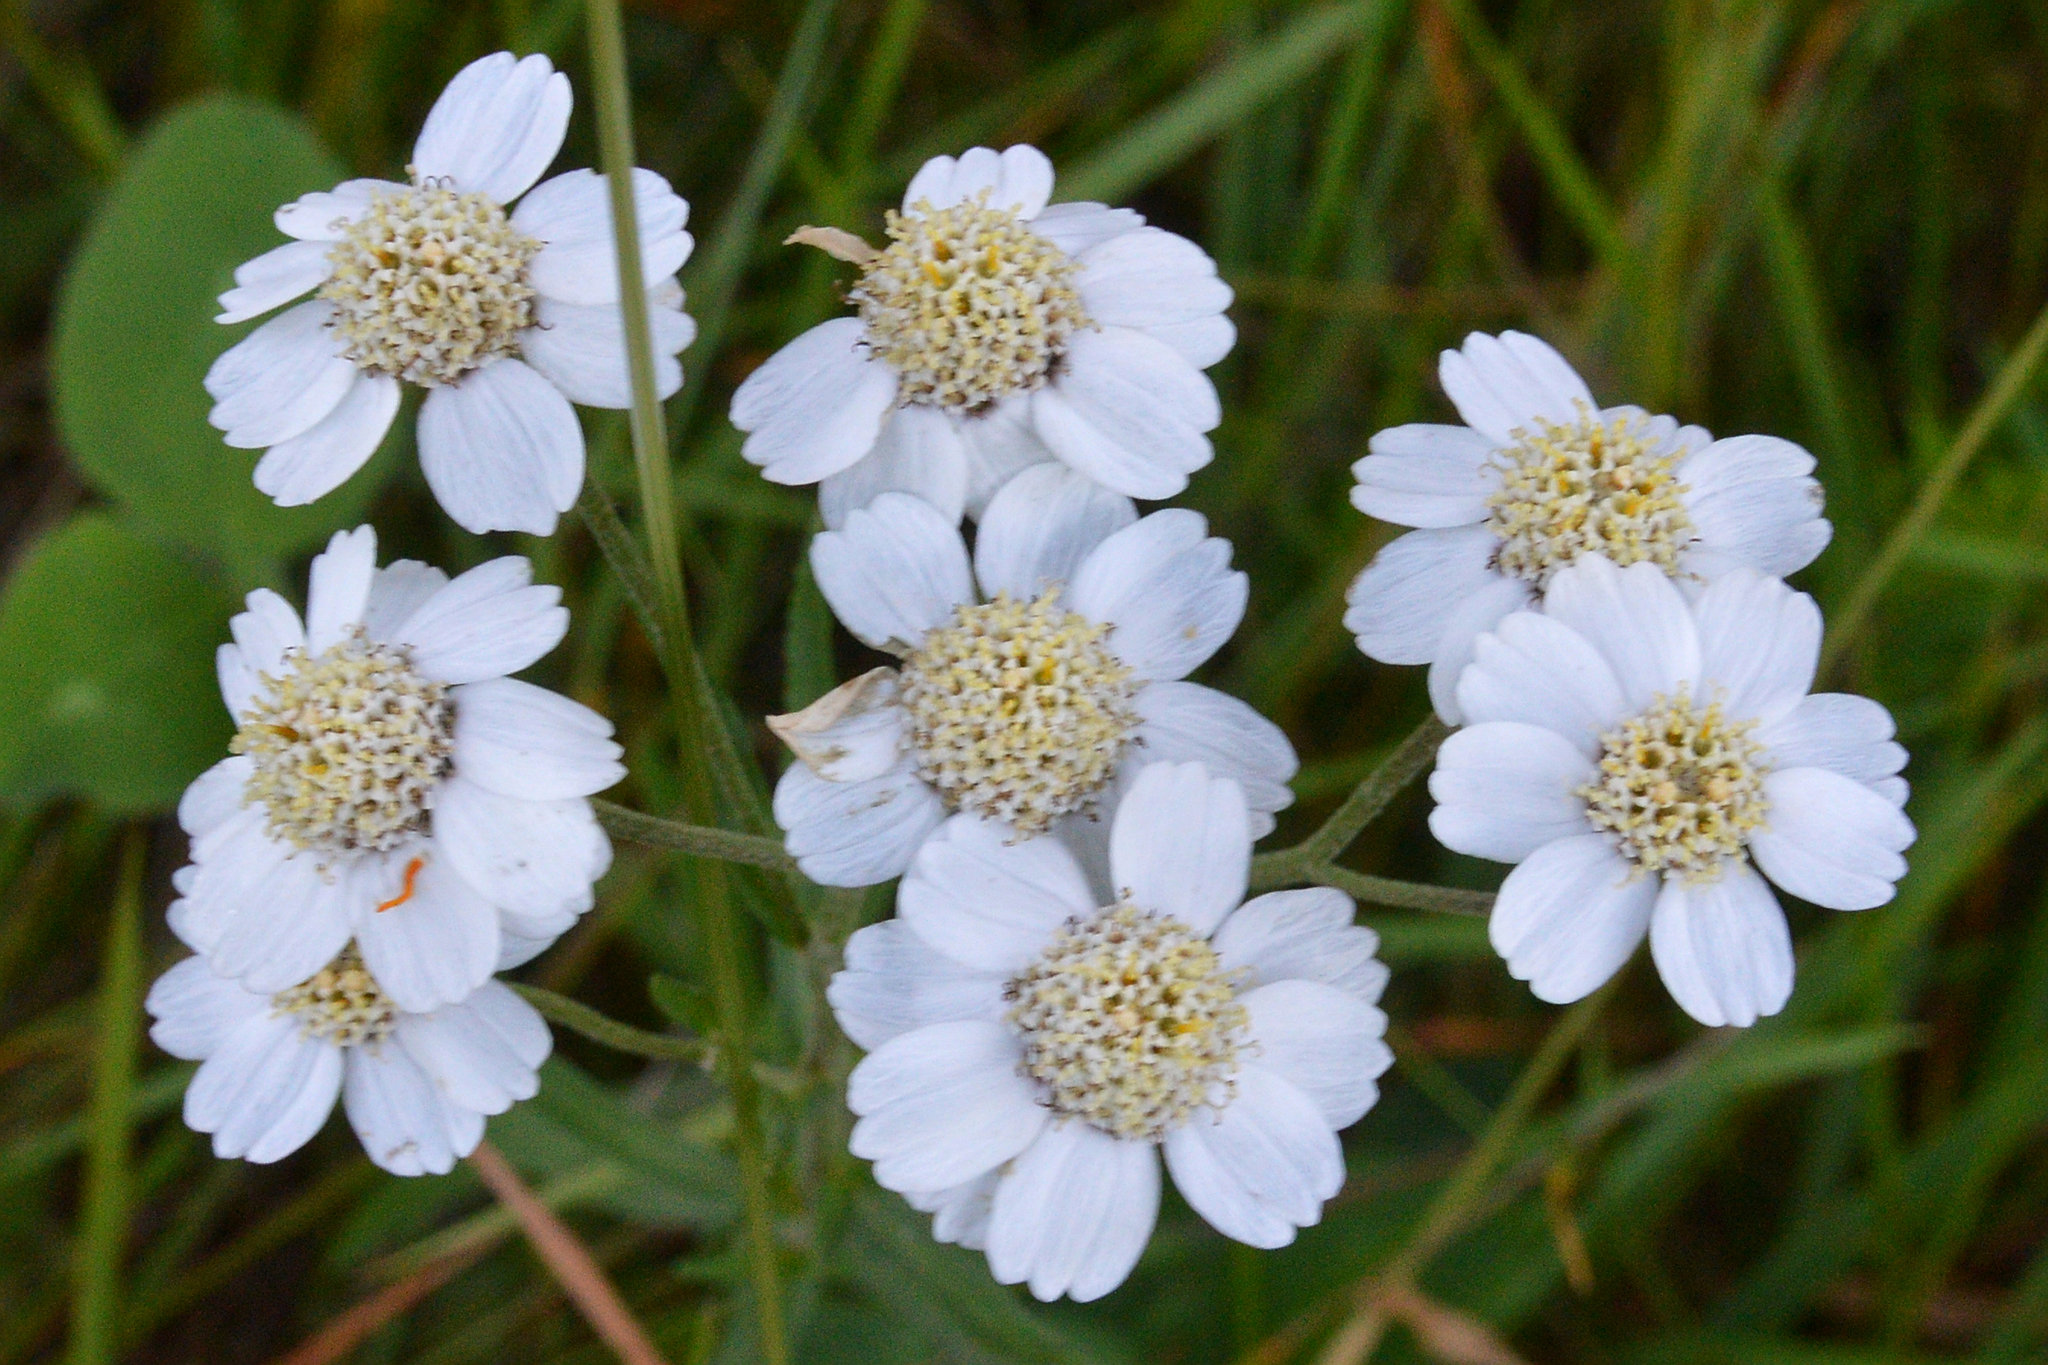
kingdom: Plantae
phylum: Tracheophyta
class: Magnoliopsida
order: Asterales
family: Asteraceae
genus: Achillea
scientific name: Achillea ptarmica
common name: Sneezeweed
